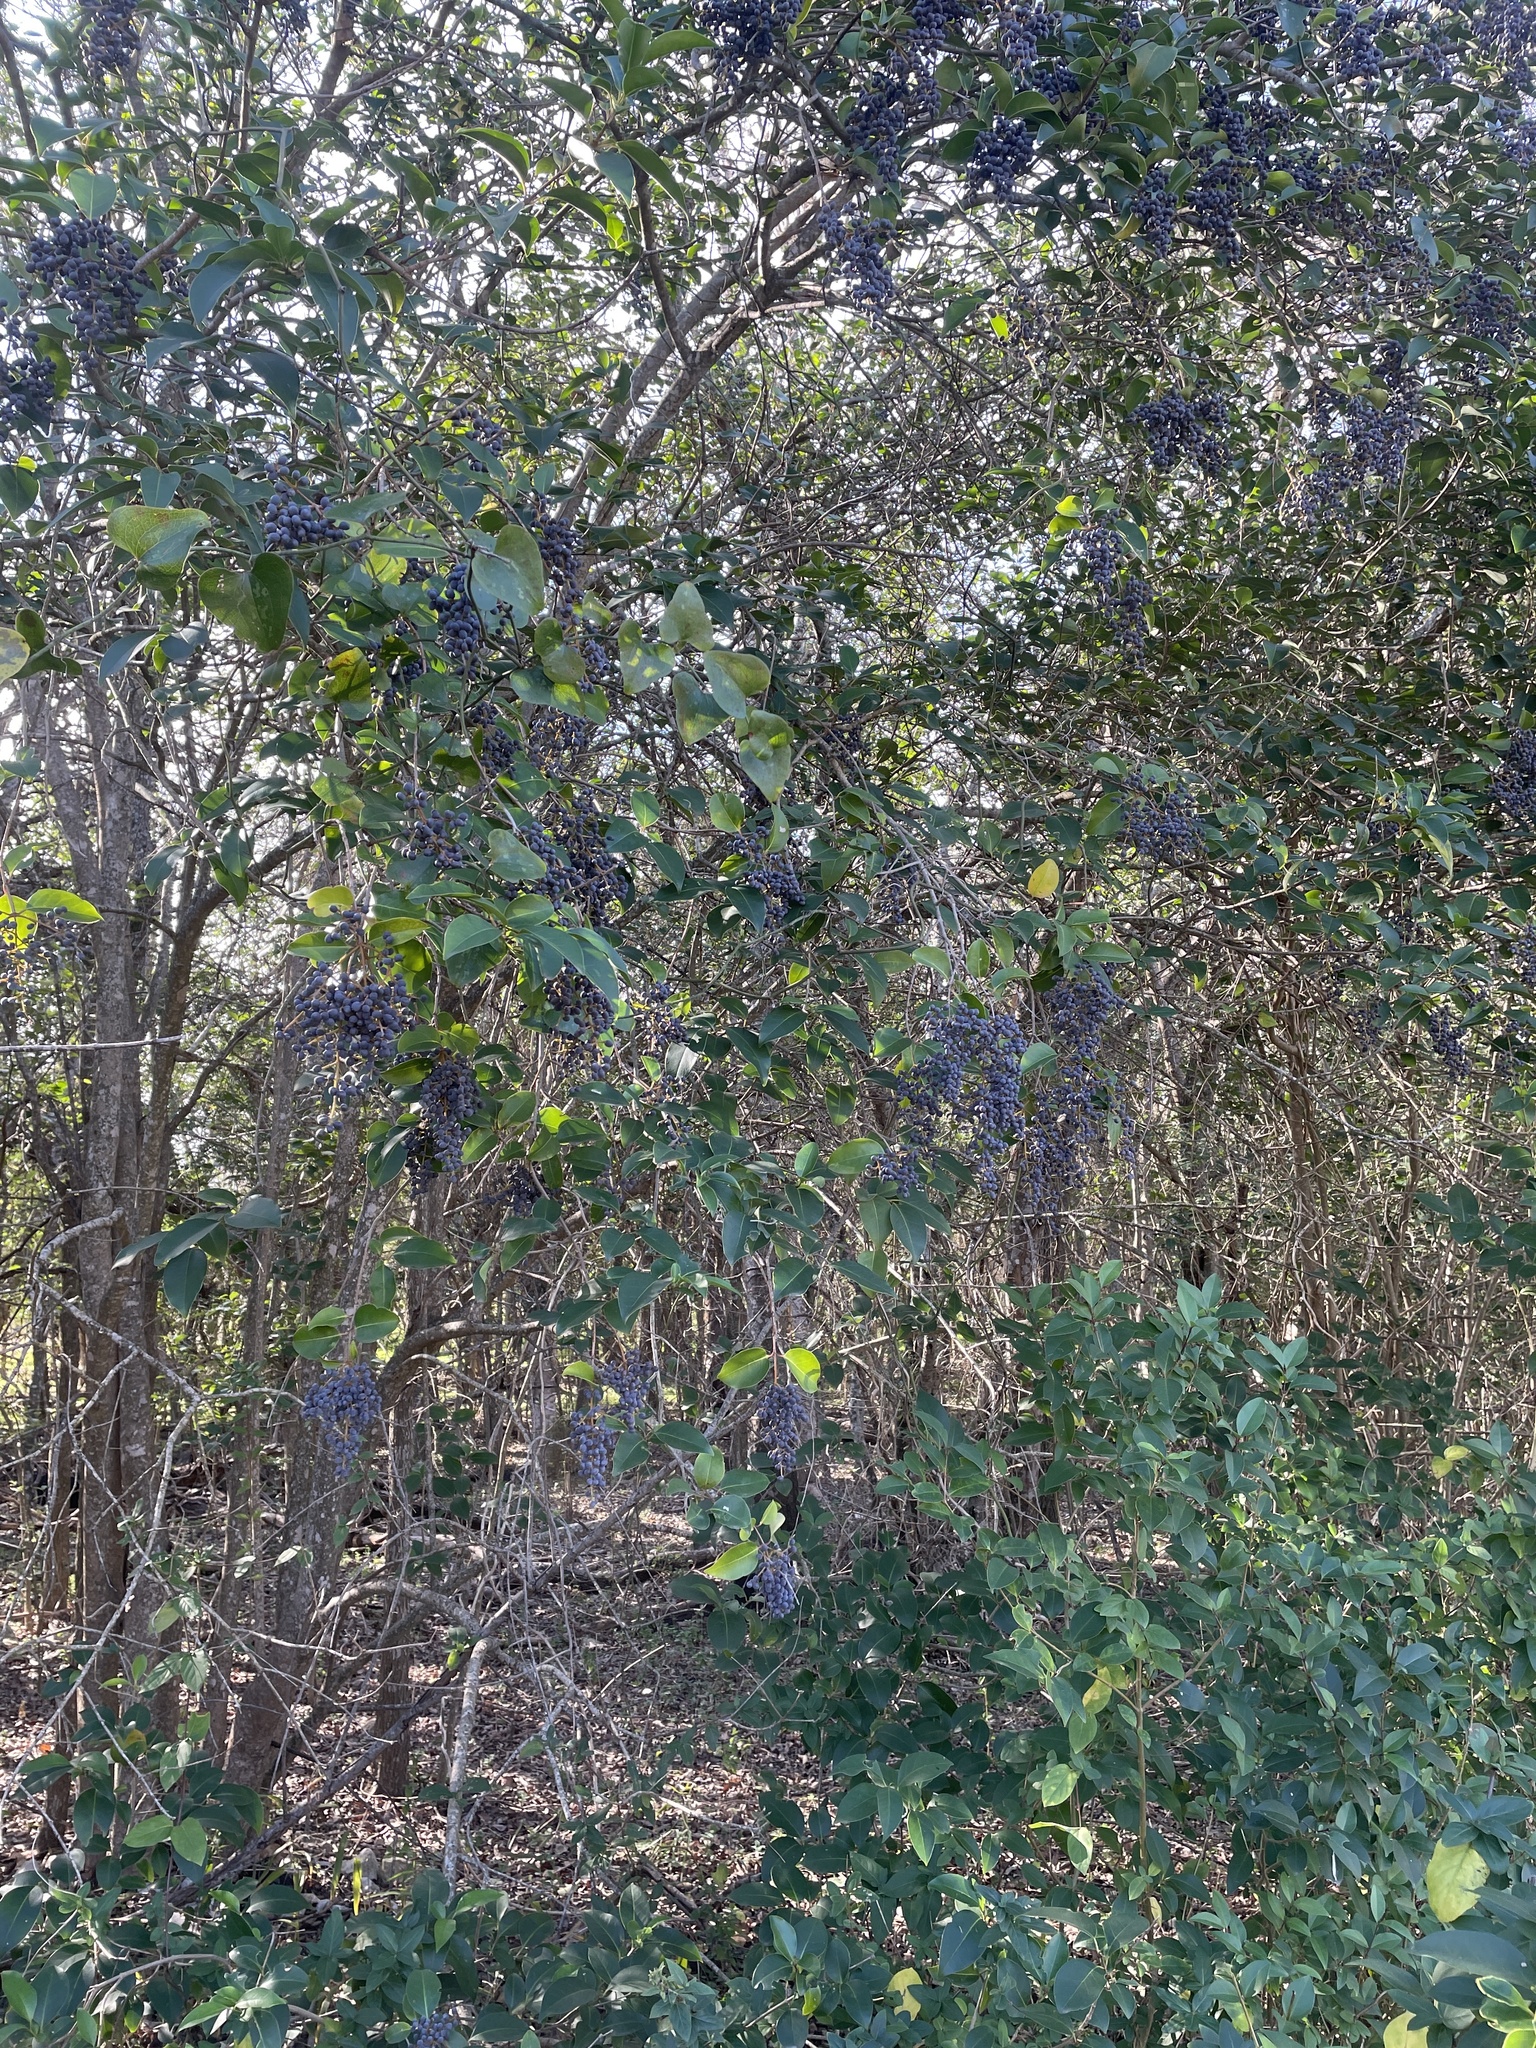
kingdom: Plantae
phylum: Tracheophyta
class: Magnoliopsida
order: Lamiales
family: Oleaceae
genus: Ligustrum
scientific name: Ligustrum lucidum
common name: Glossy privet
